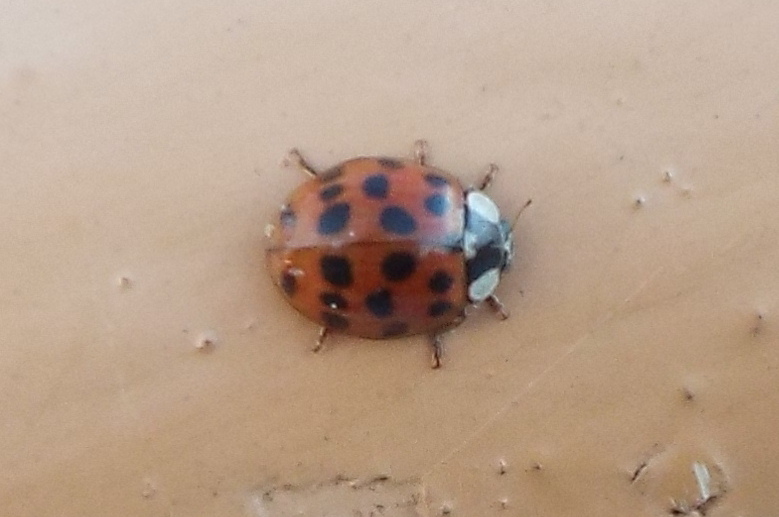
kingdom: Animalia
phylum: Arthropoda
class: Insecta
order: Coleoptera
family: Coccinellidae
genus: Harmonia
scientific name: Harmonia axyridis
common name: Harlequin ladybird
